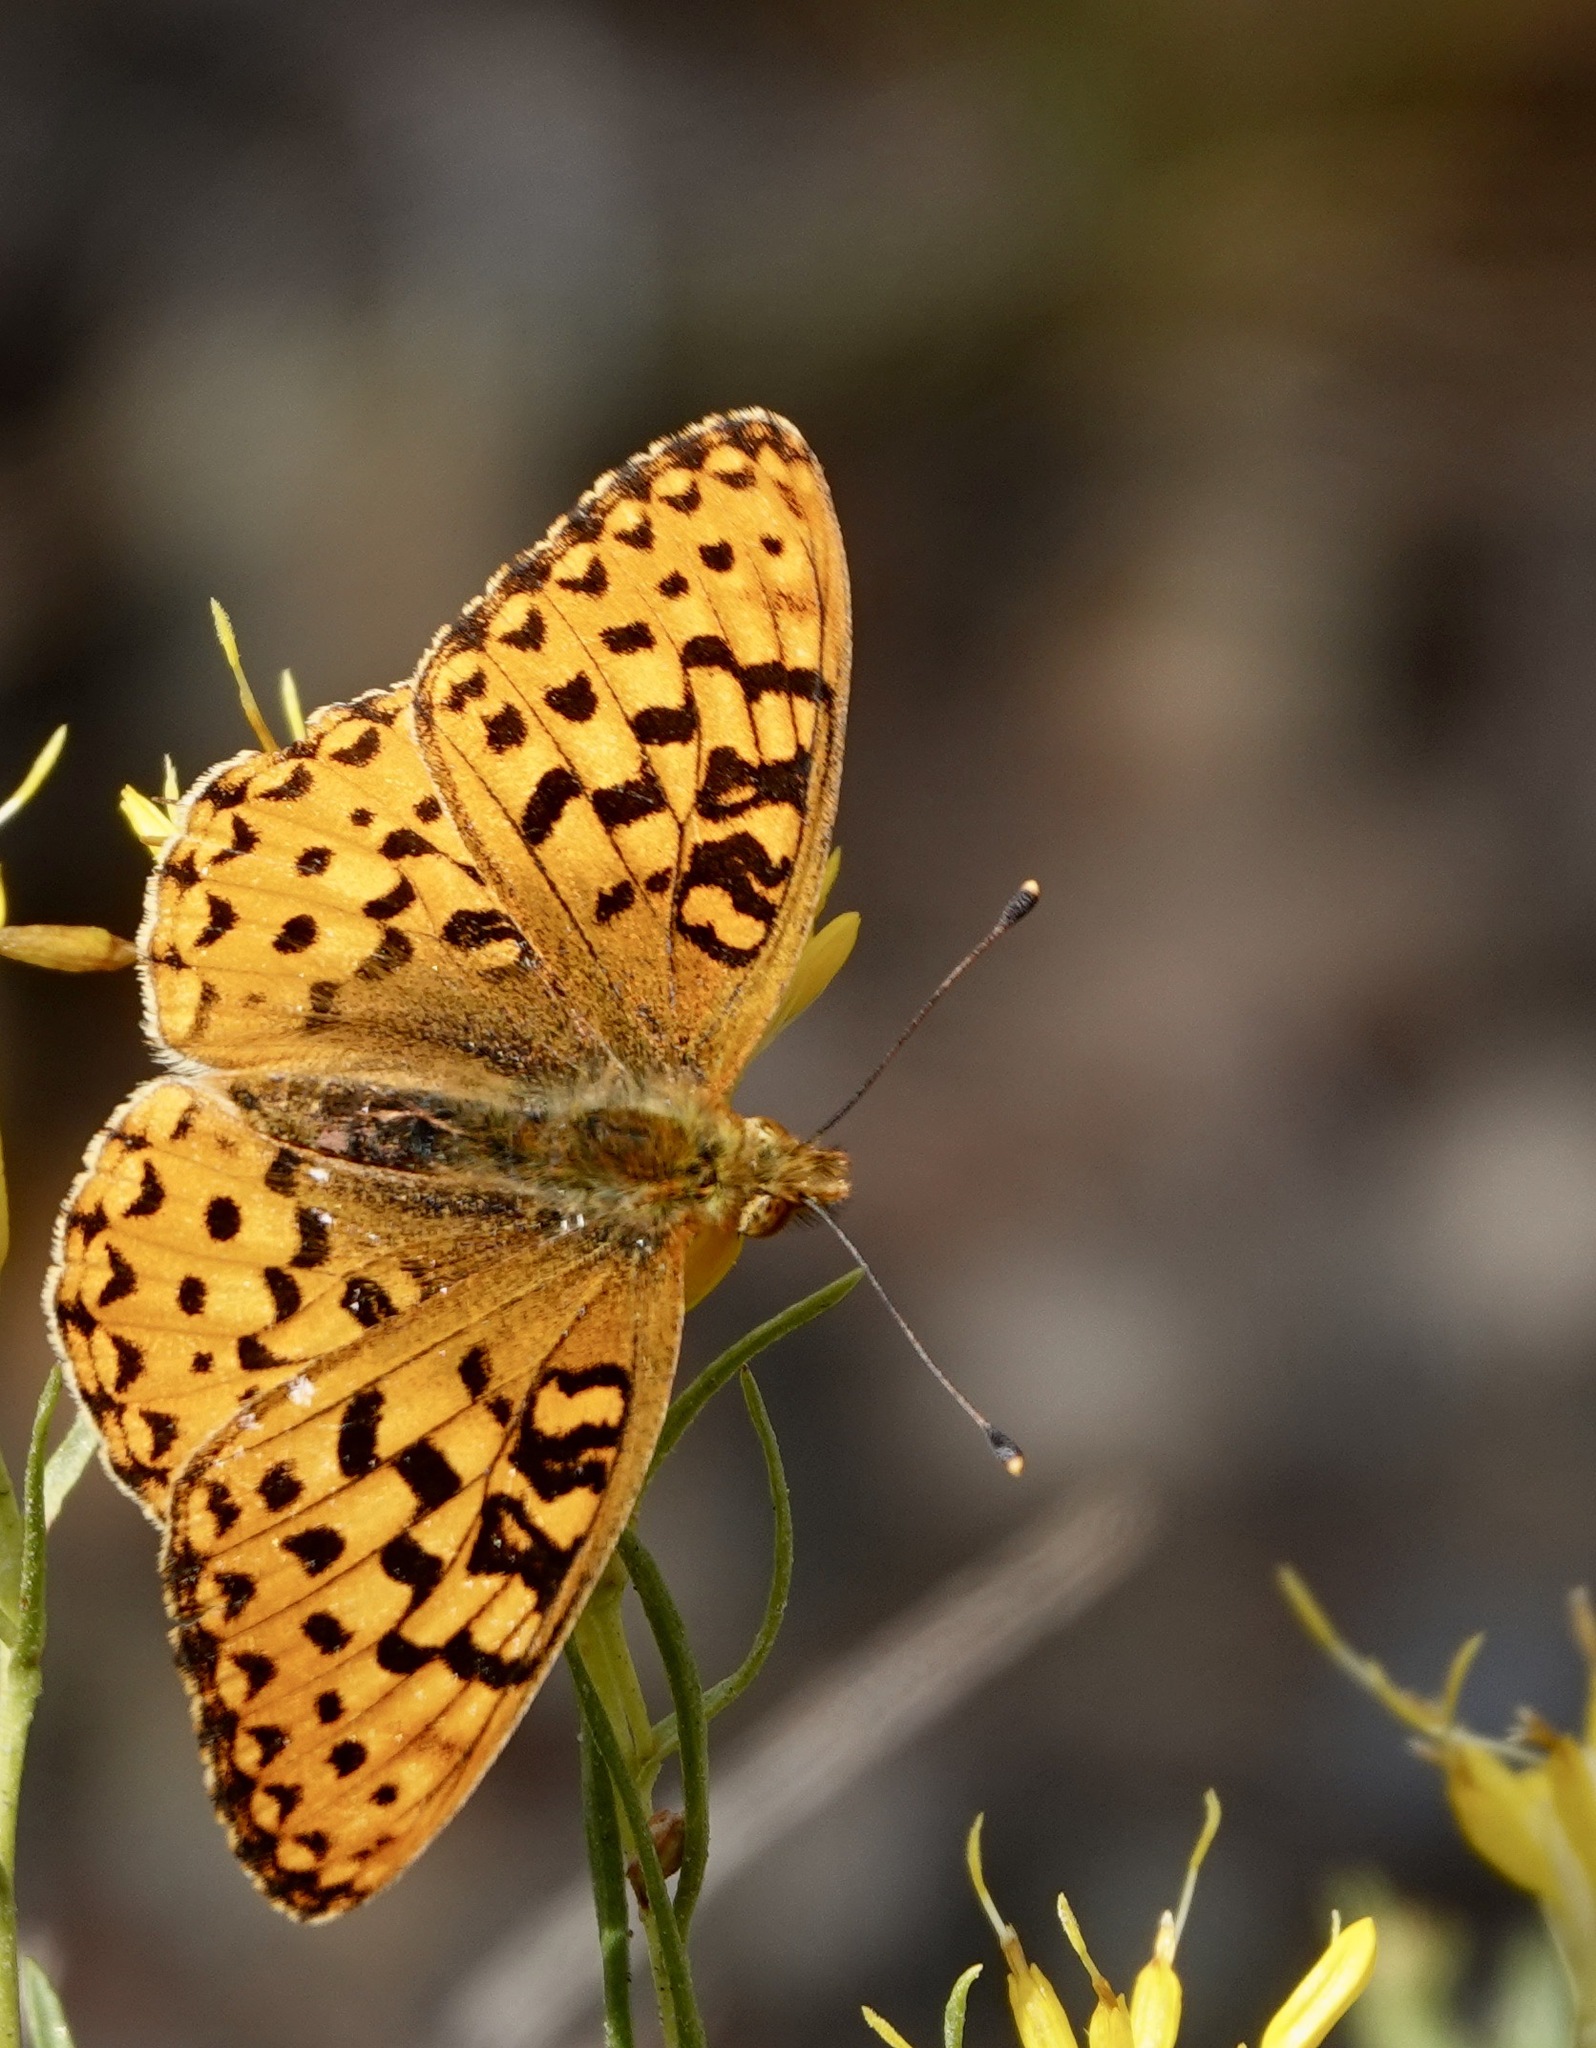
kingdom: Animalia
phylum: Arthropoda
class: Insecta
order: Lepidoptera
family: Nymphalidae
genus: Speyeria
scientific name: Speyeria mormonia
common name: Mormon fritillary
